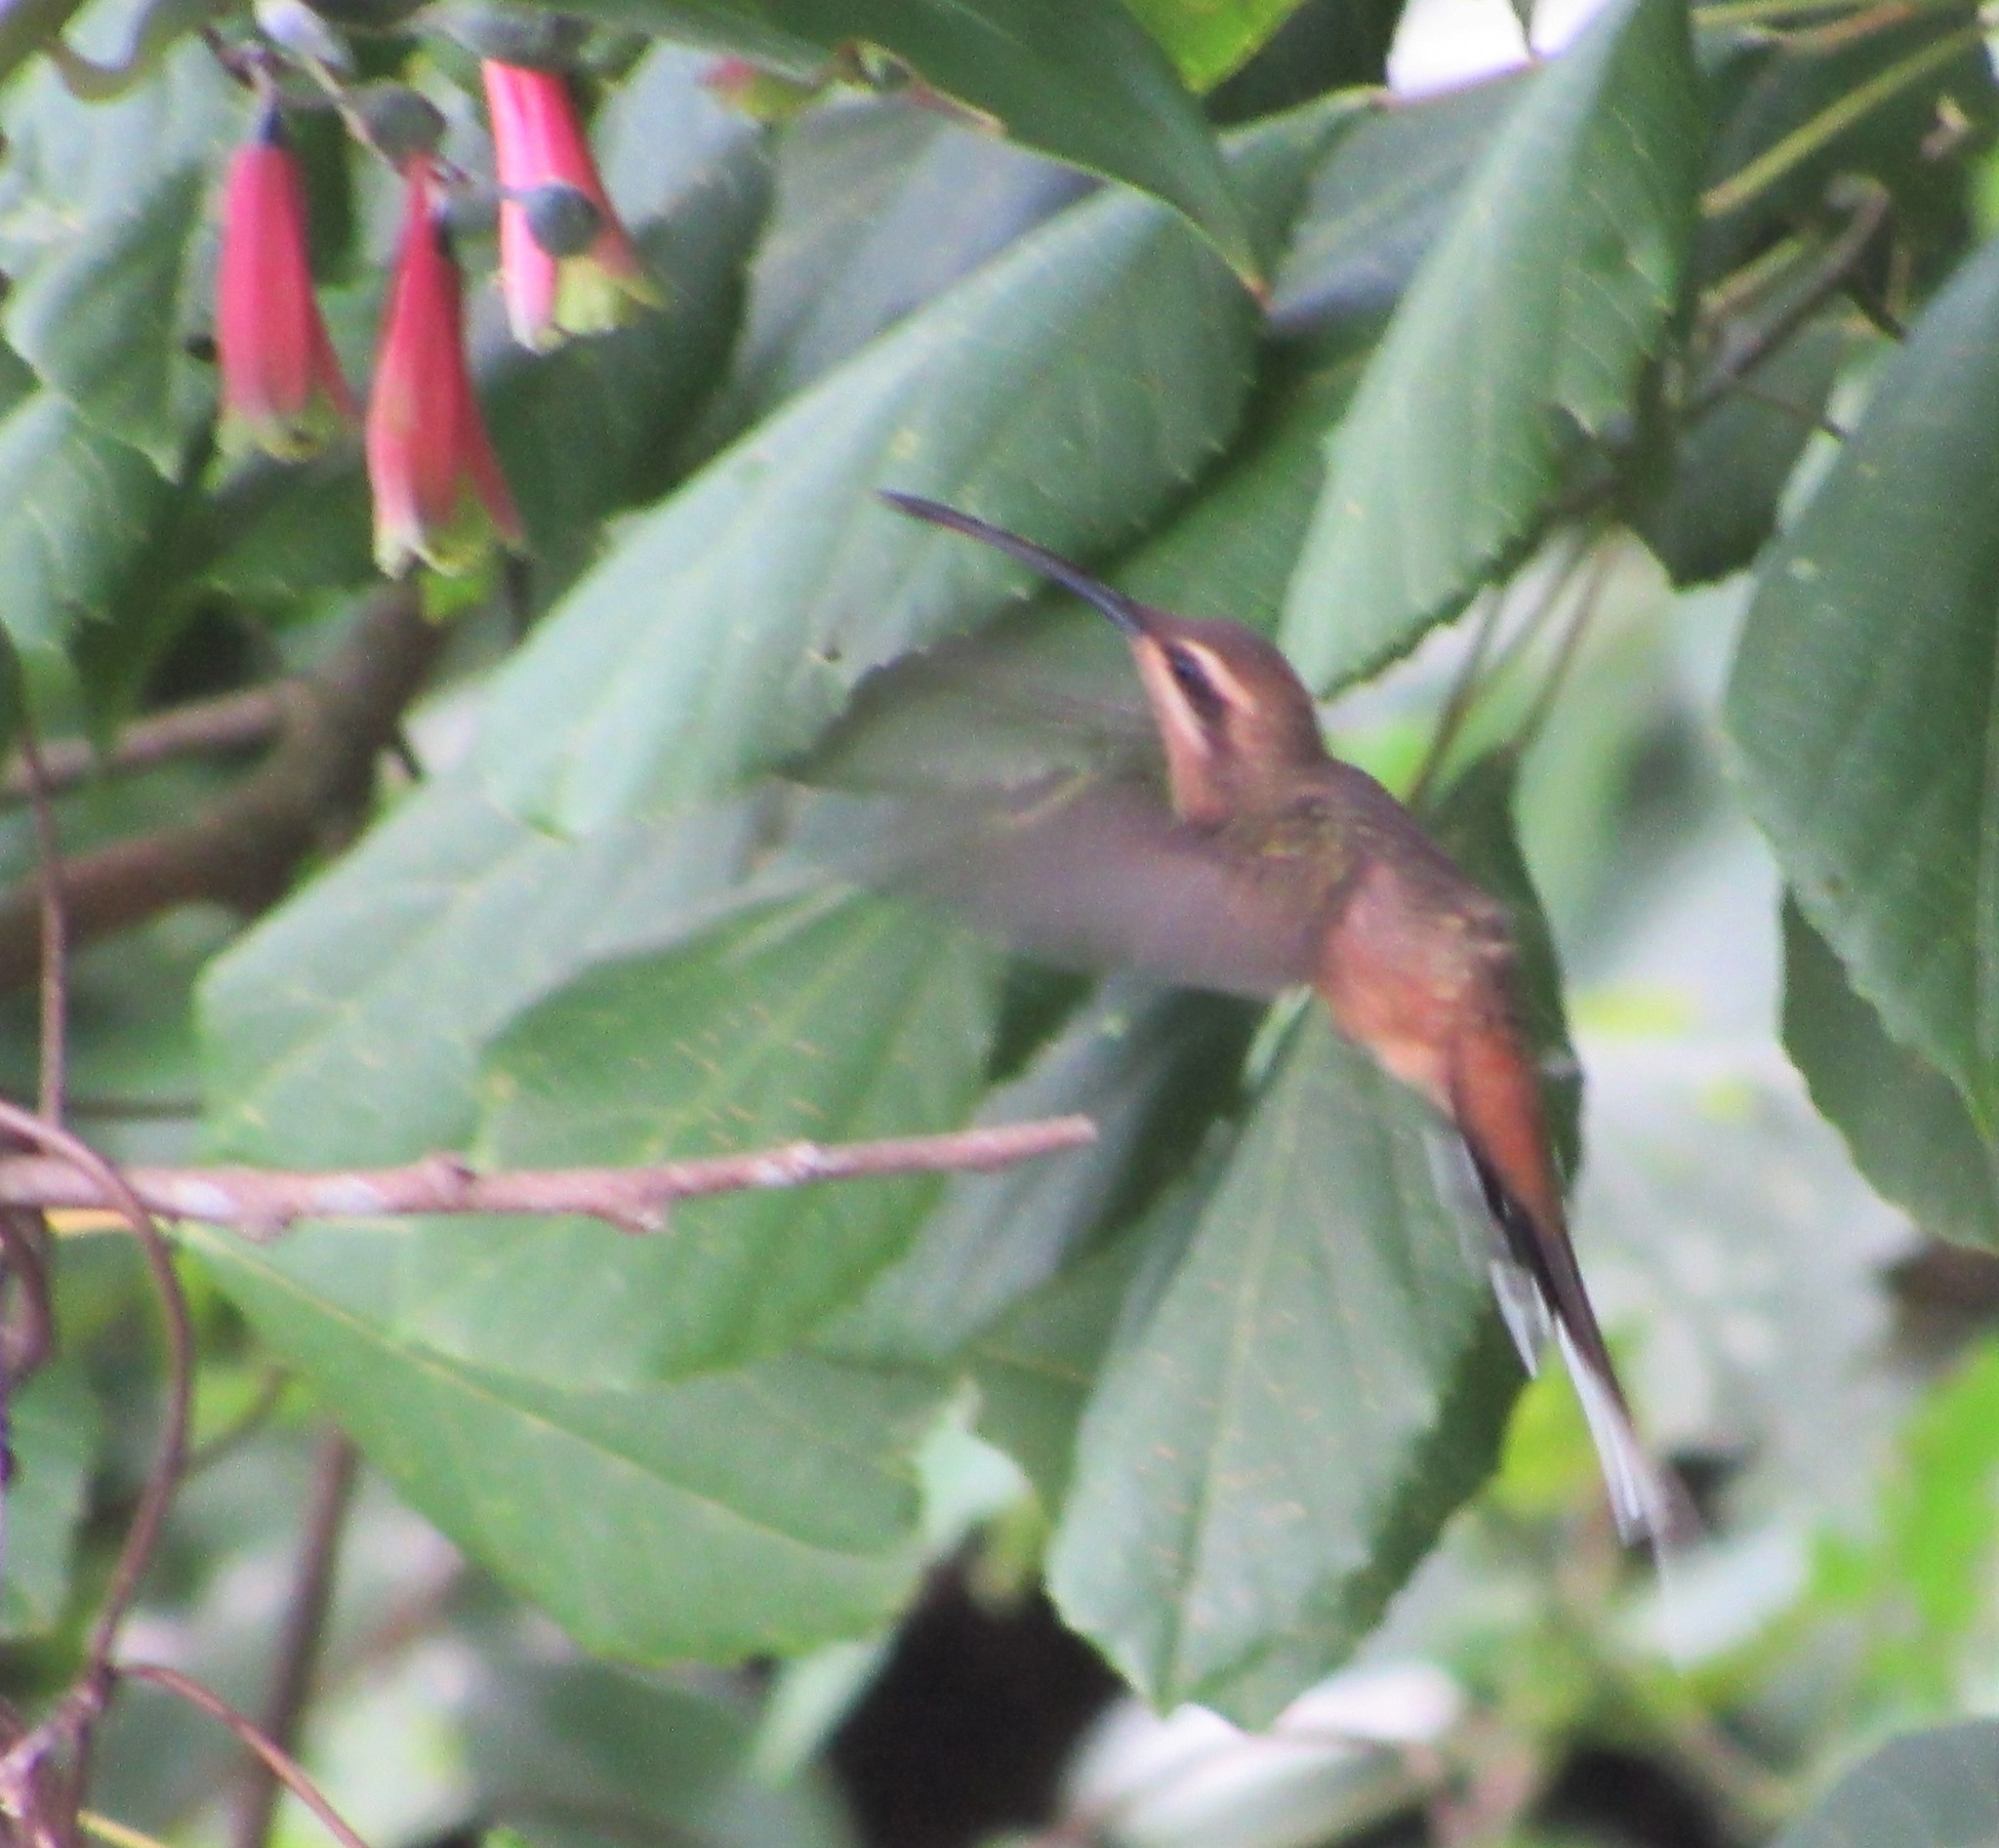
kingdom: Animalia
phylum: Chordata
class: Aves
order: Apodiformes
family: Trochilidae
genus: Phaethornis
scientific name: Phaethornis pretrei
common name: Planalto hermit
